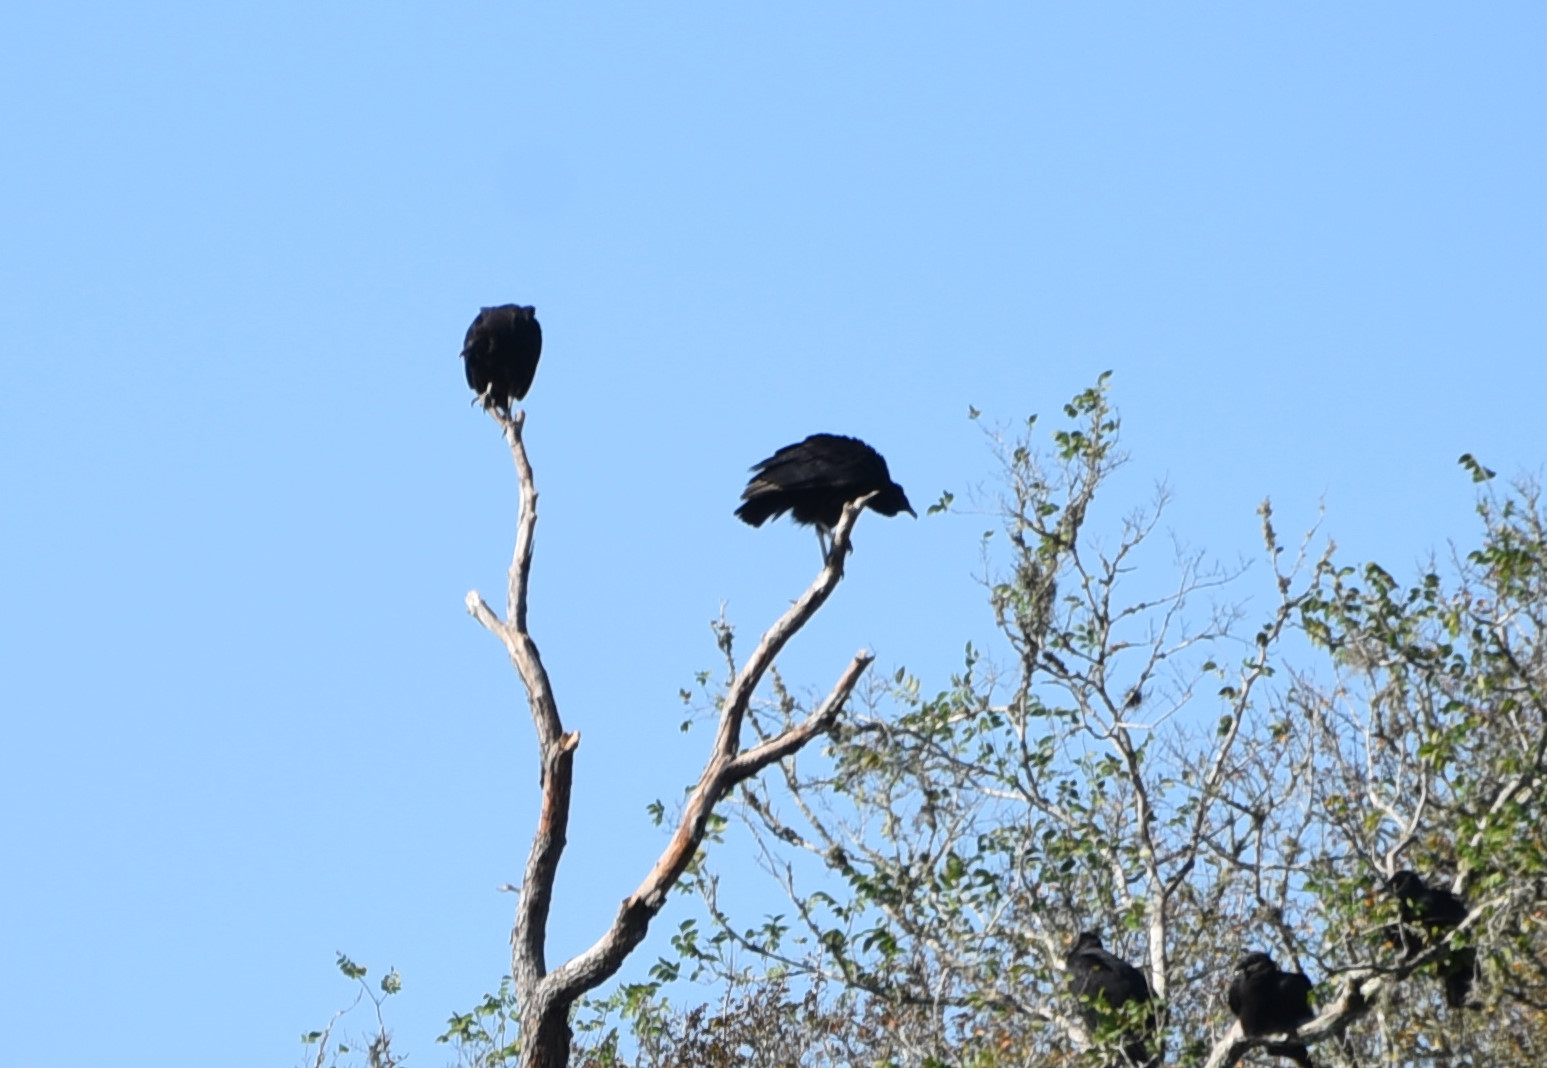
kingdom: Animalia
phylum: Chordata
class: Aves
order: Accipitriformes
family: Cathartidae
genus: Coragyps
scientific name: Coragyps atratus
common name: Black vulture
